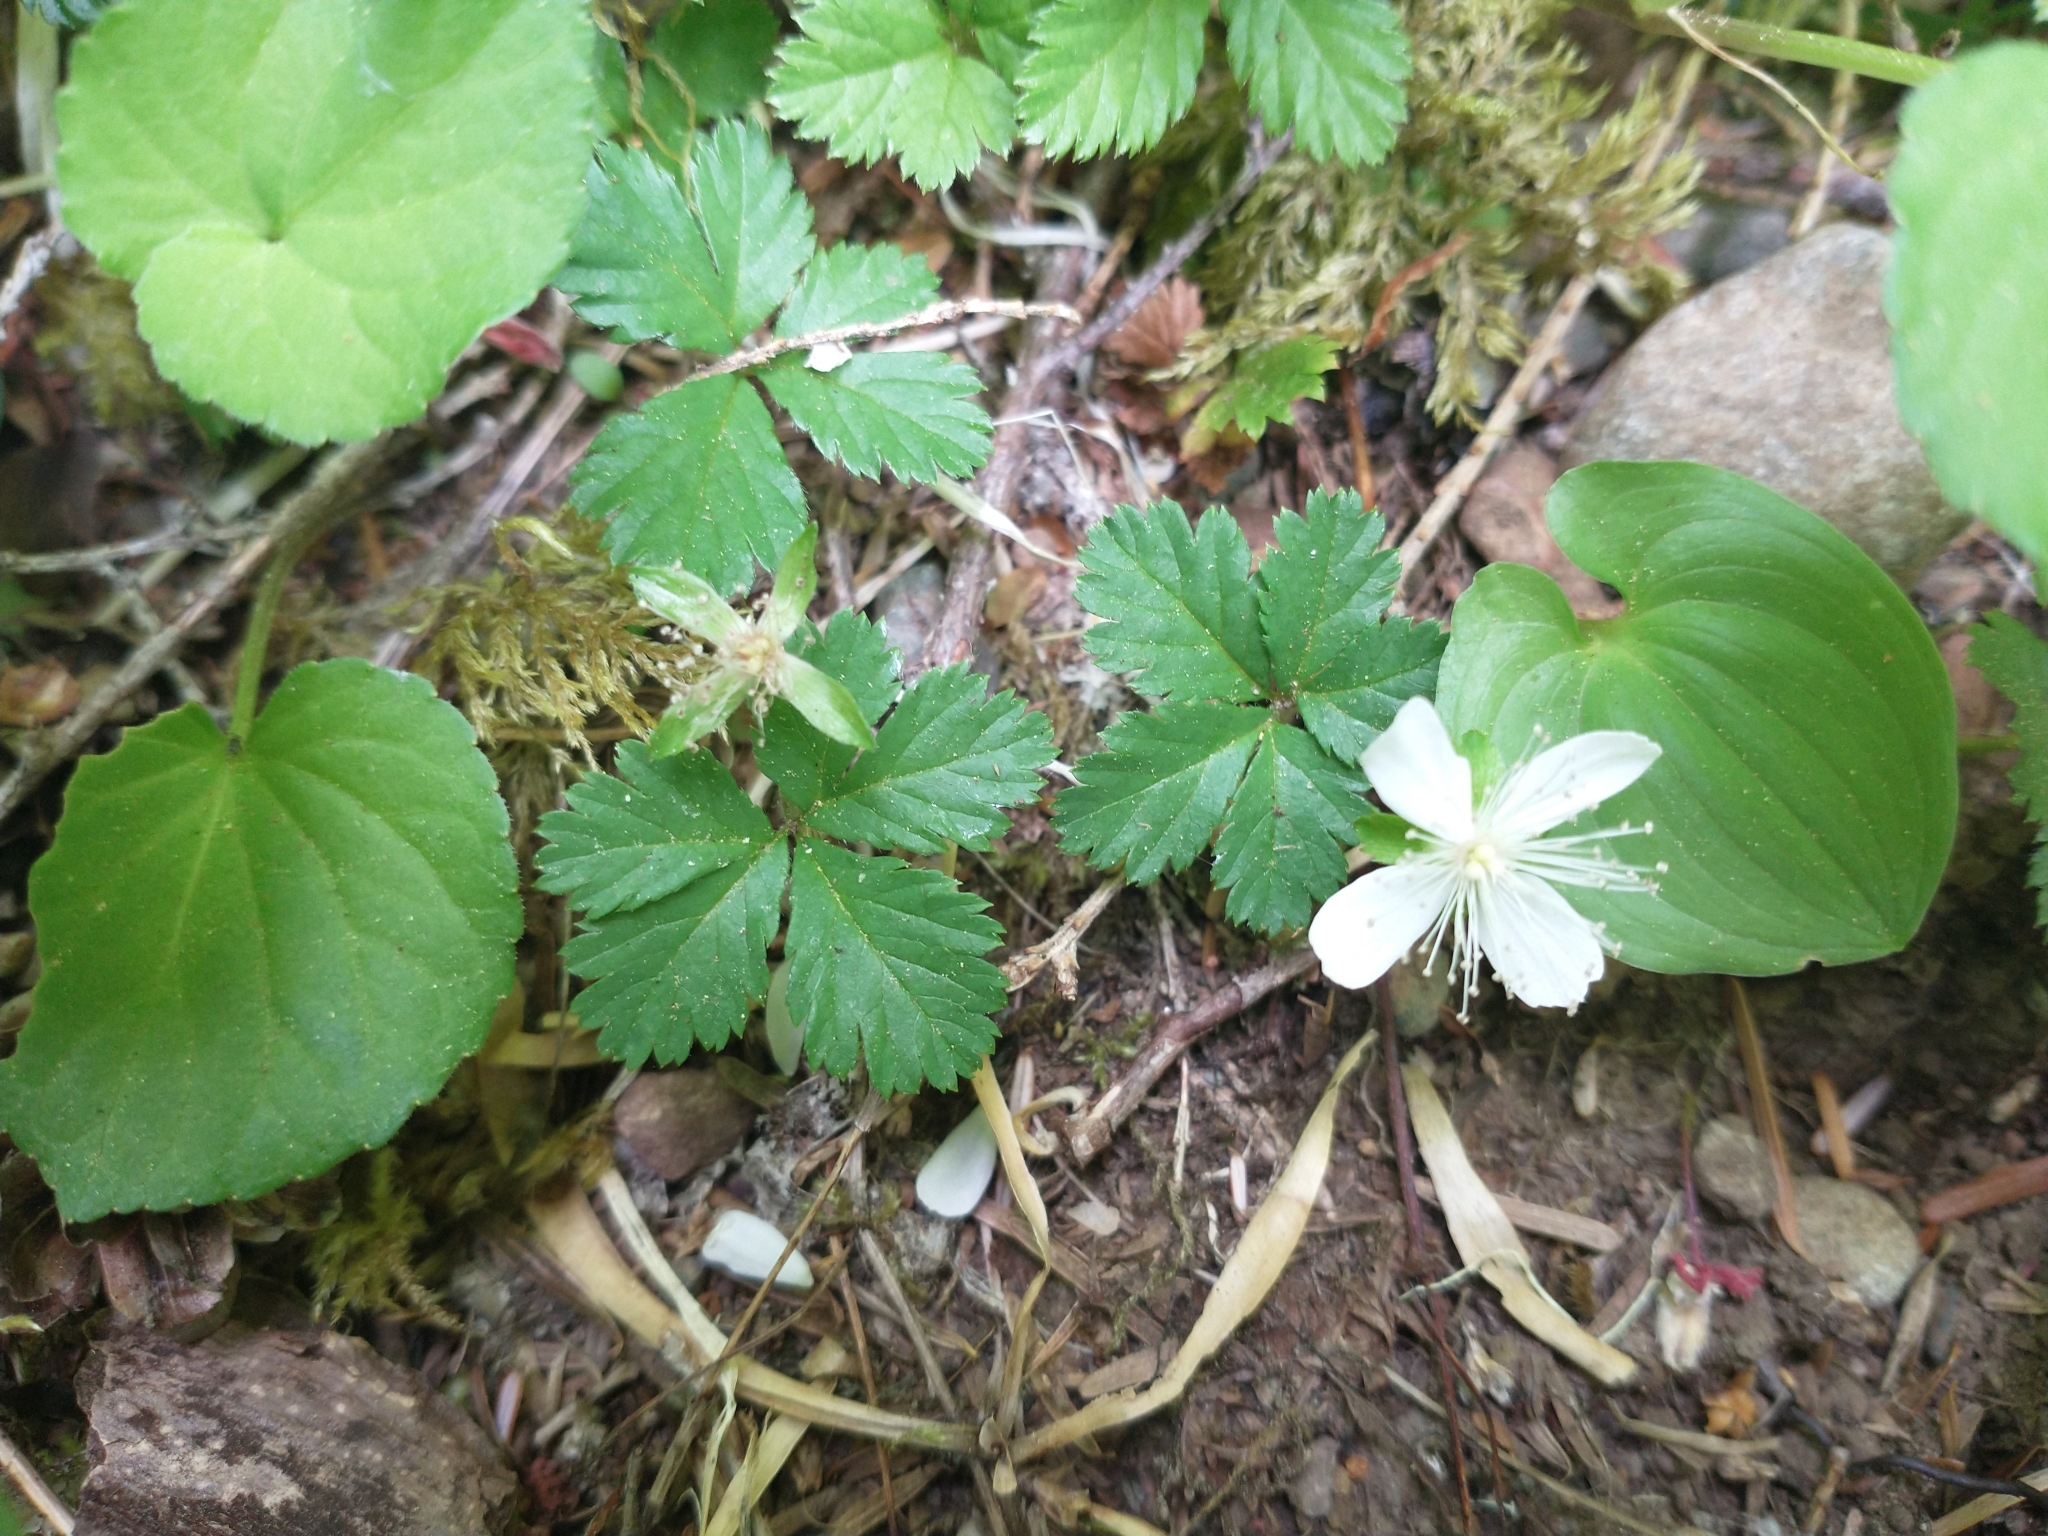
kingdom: Plantae
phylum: Tracheophyta
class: Magnoliopsida
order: Rosales
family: Rosaceae
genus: Rubus
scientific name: Rubus pedatus
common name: Creeping raspberry
